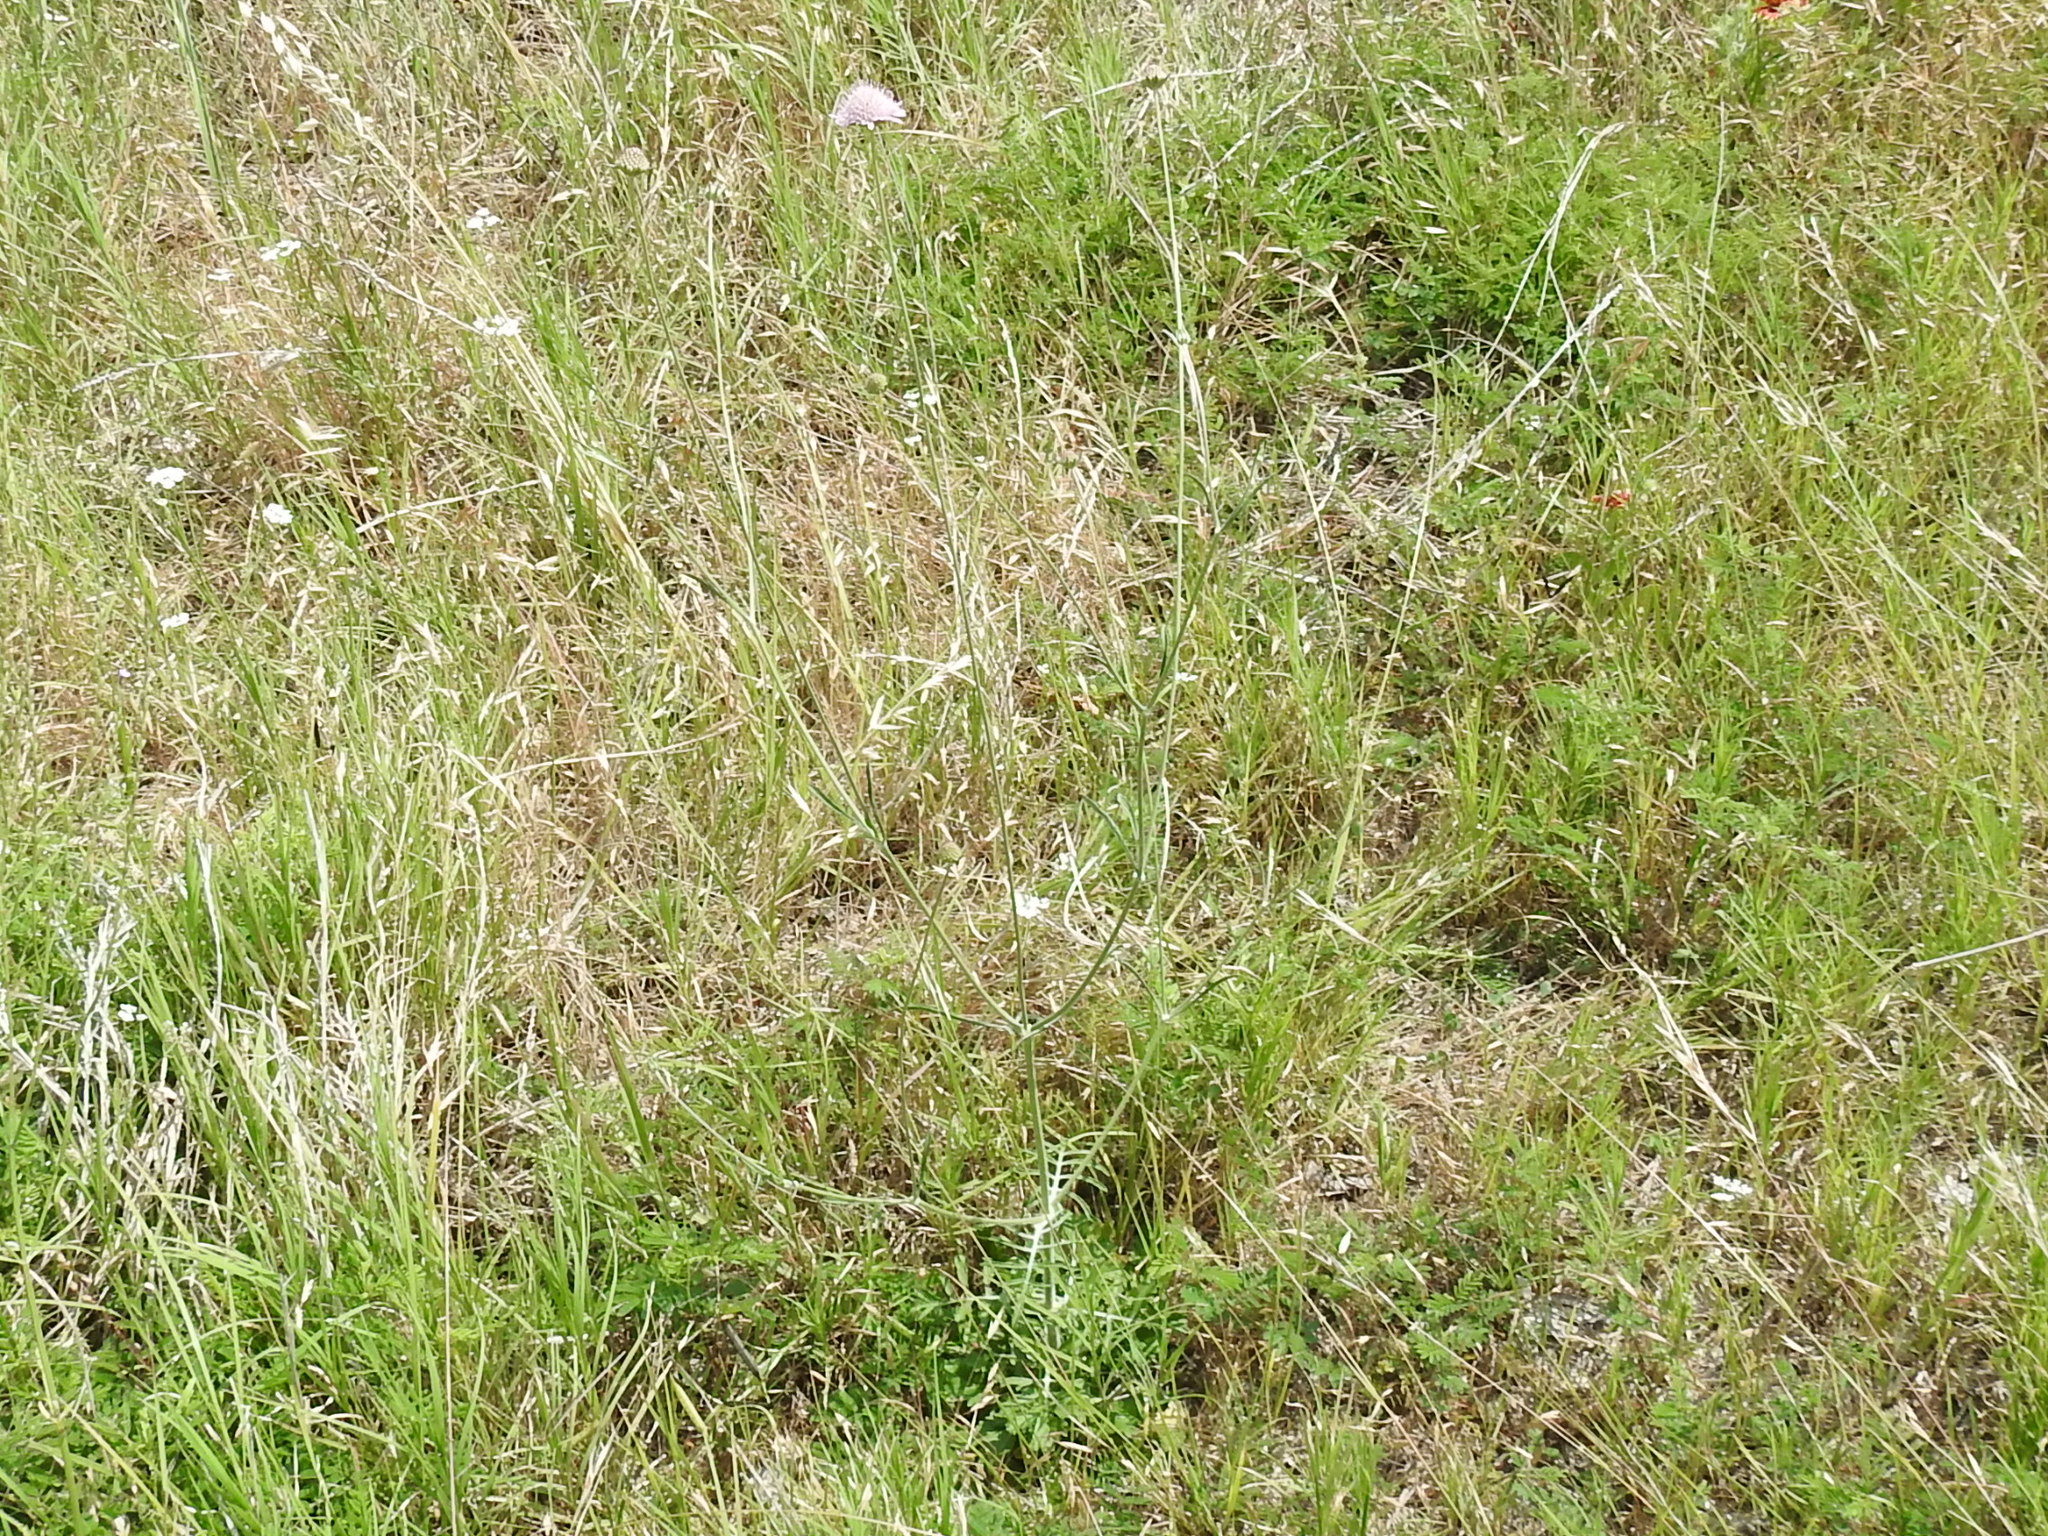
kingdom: Plantae
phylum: Tracheophyta
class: Magnoliopsida
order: Dipsacales
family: Caprifoliaceae
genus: Sixalix
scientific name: Sixalix atropurpurea
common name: Sweet scabious
